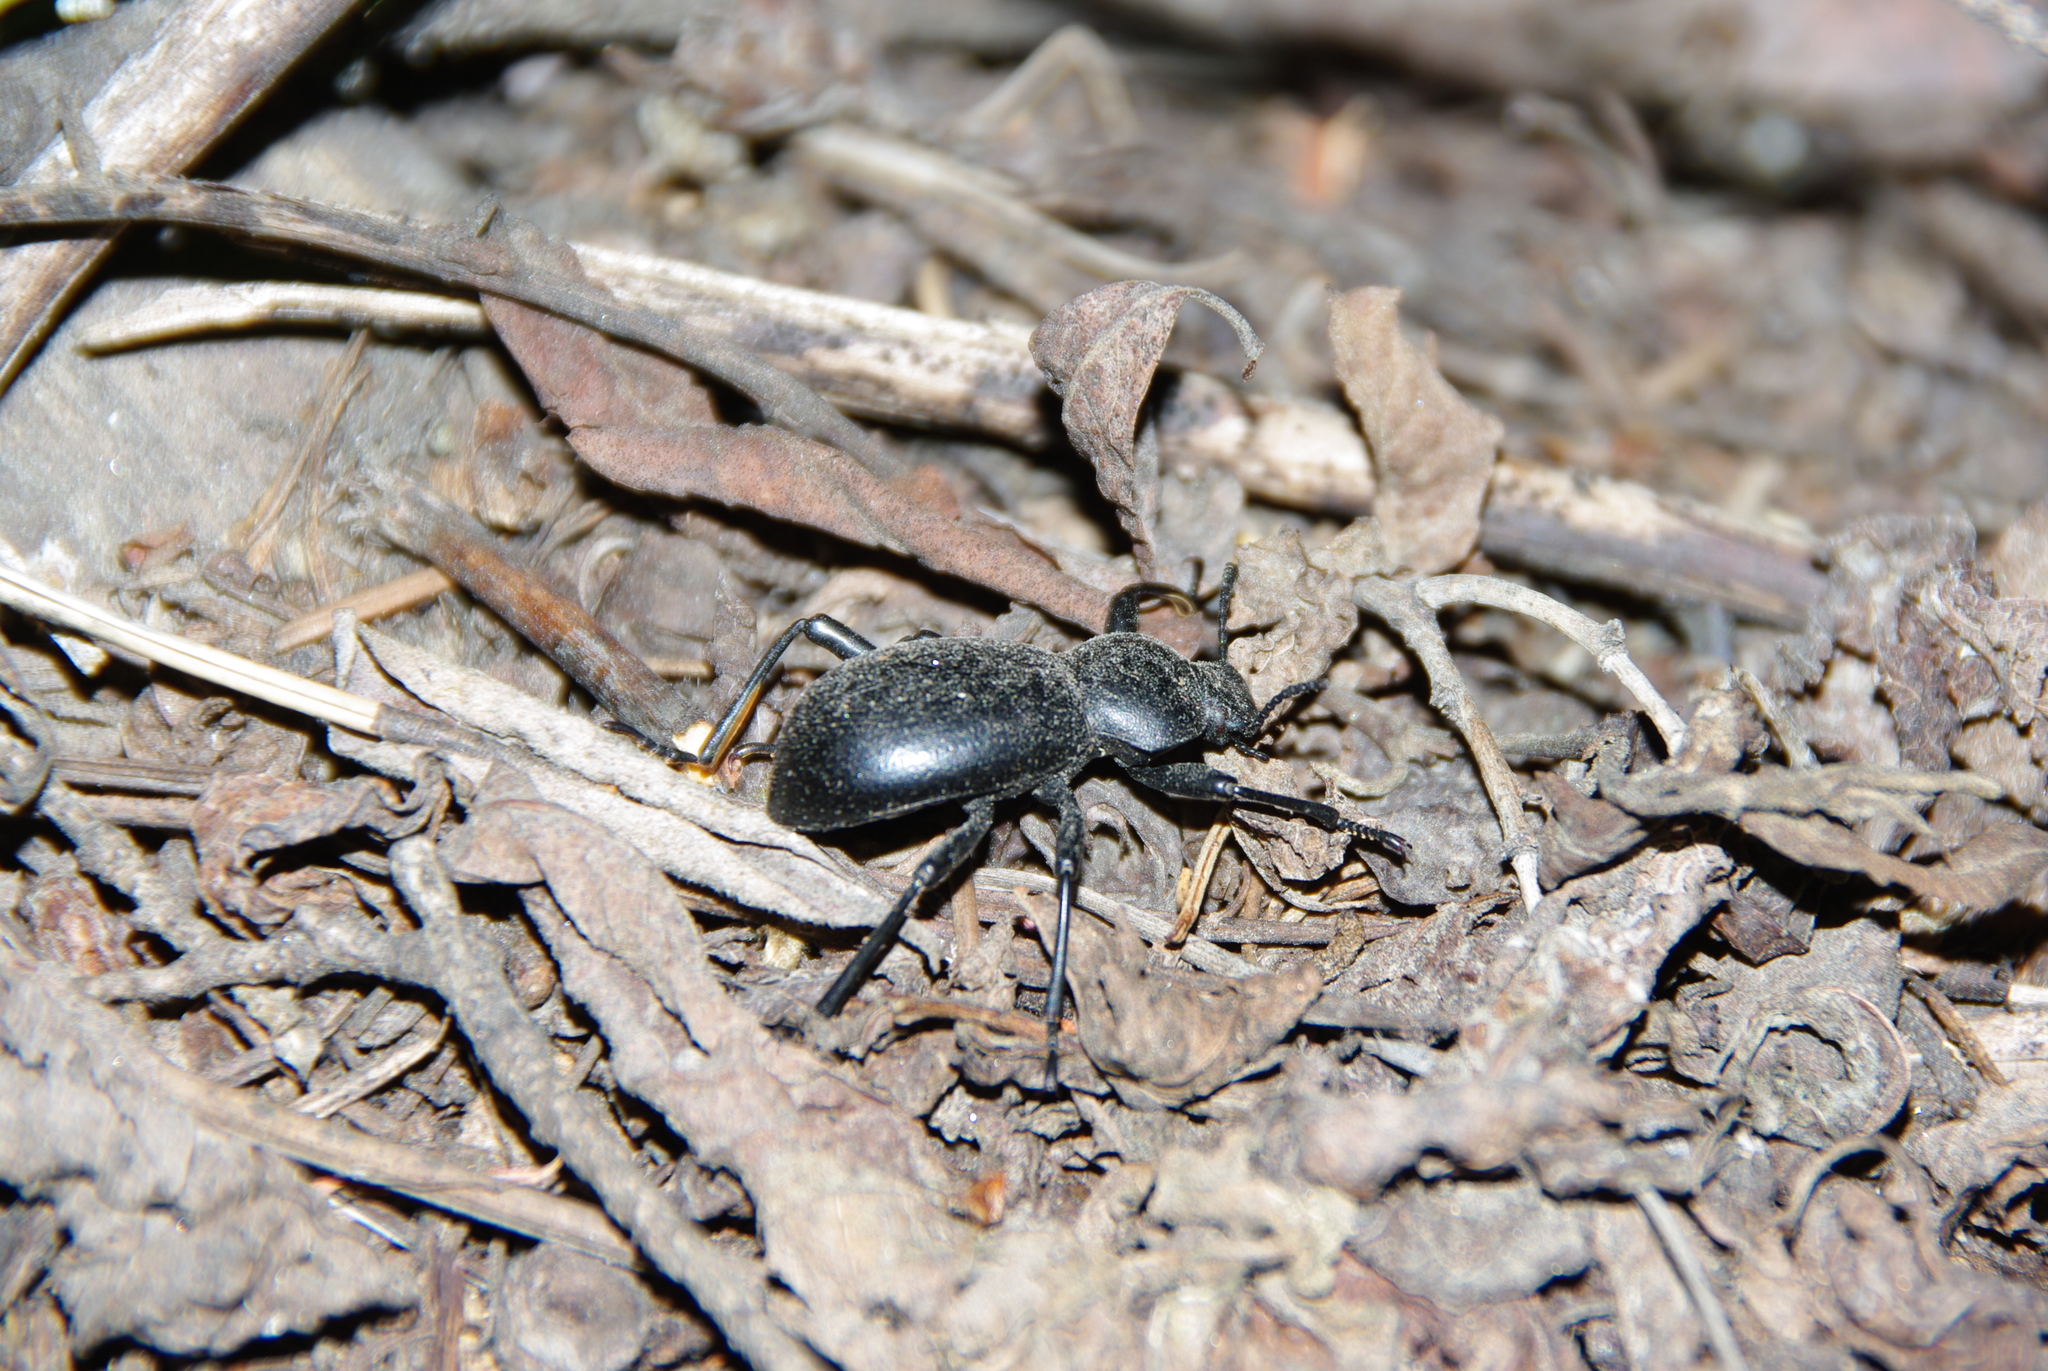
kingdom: Animalia
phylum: Arthropoda
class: Insecta
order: Coleoptera
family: Tenebrionidae
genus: Coelocnemis
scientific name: Coelocnemis dilaticollis
